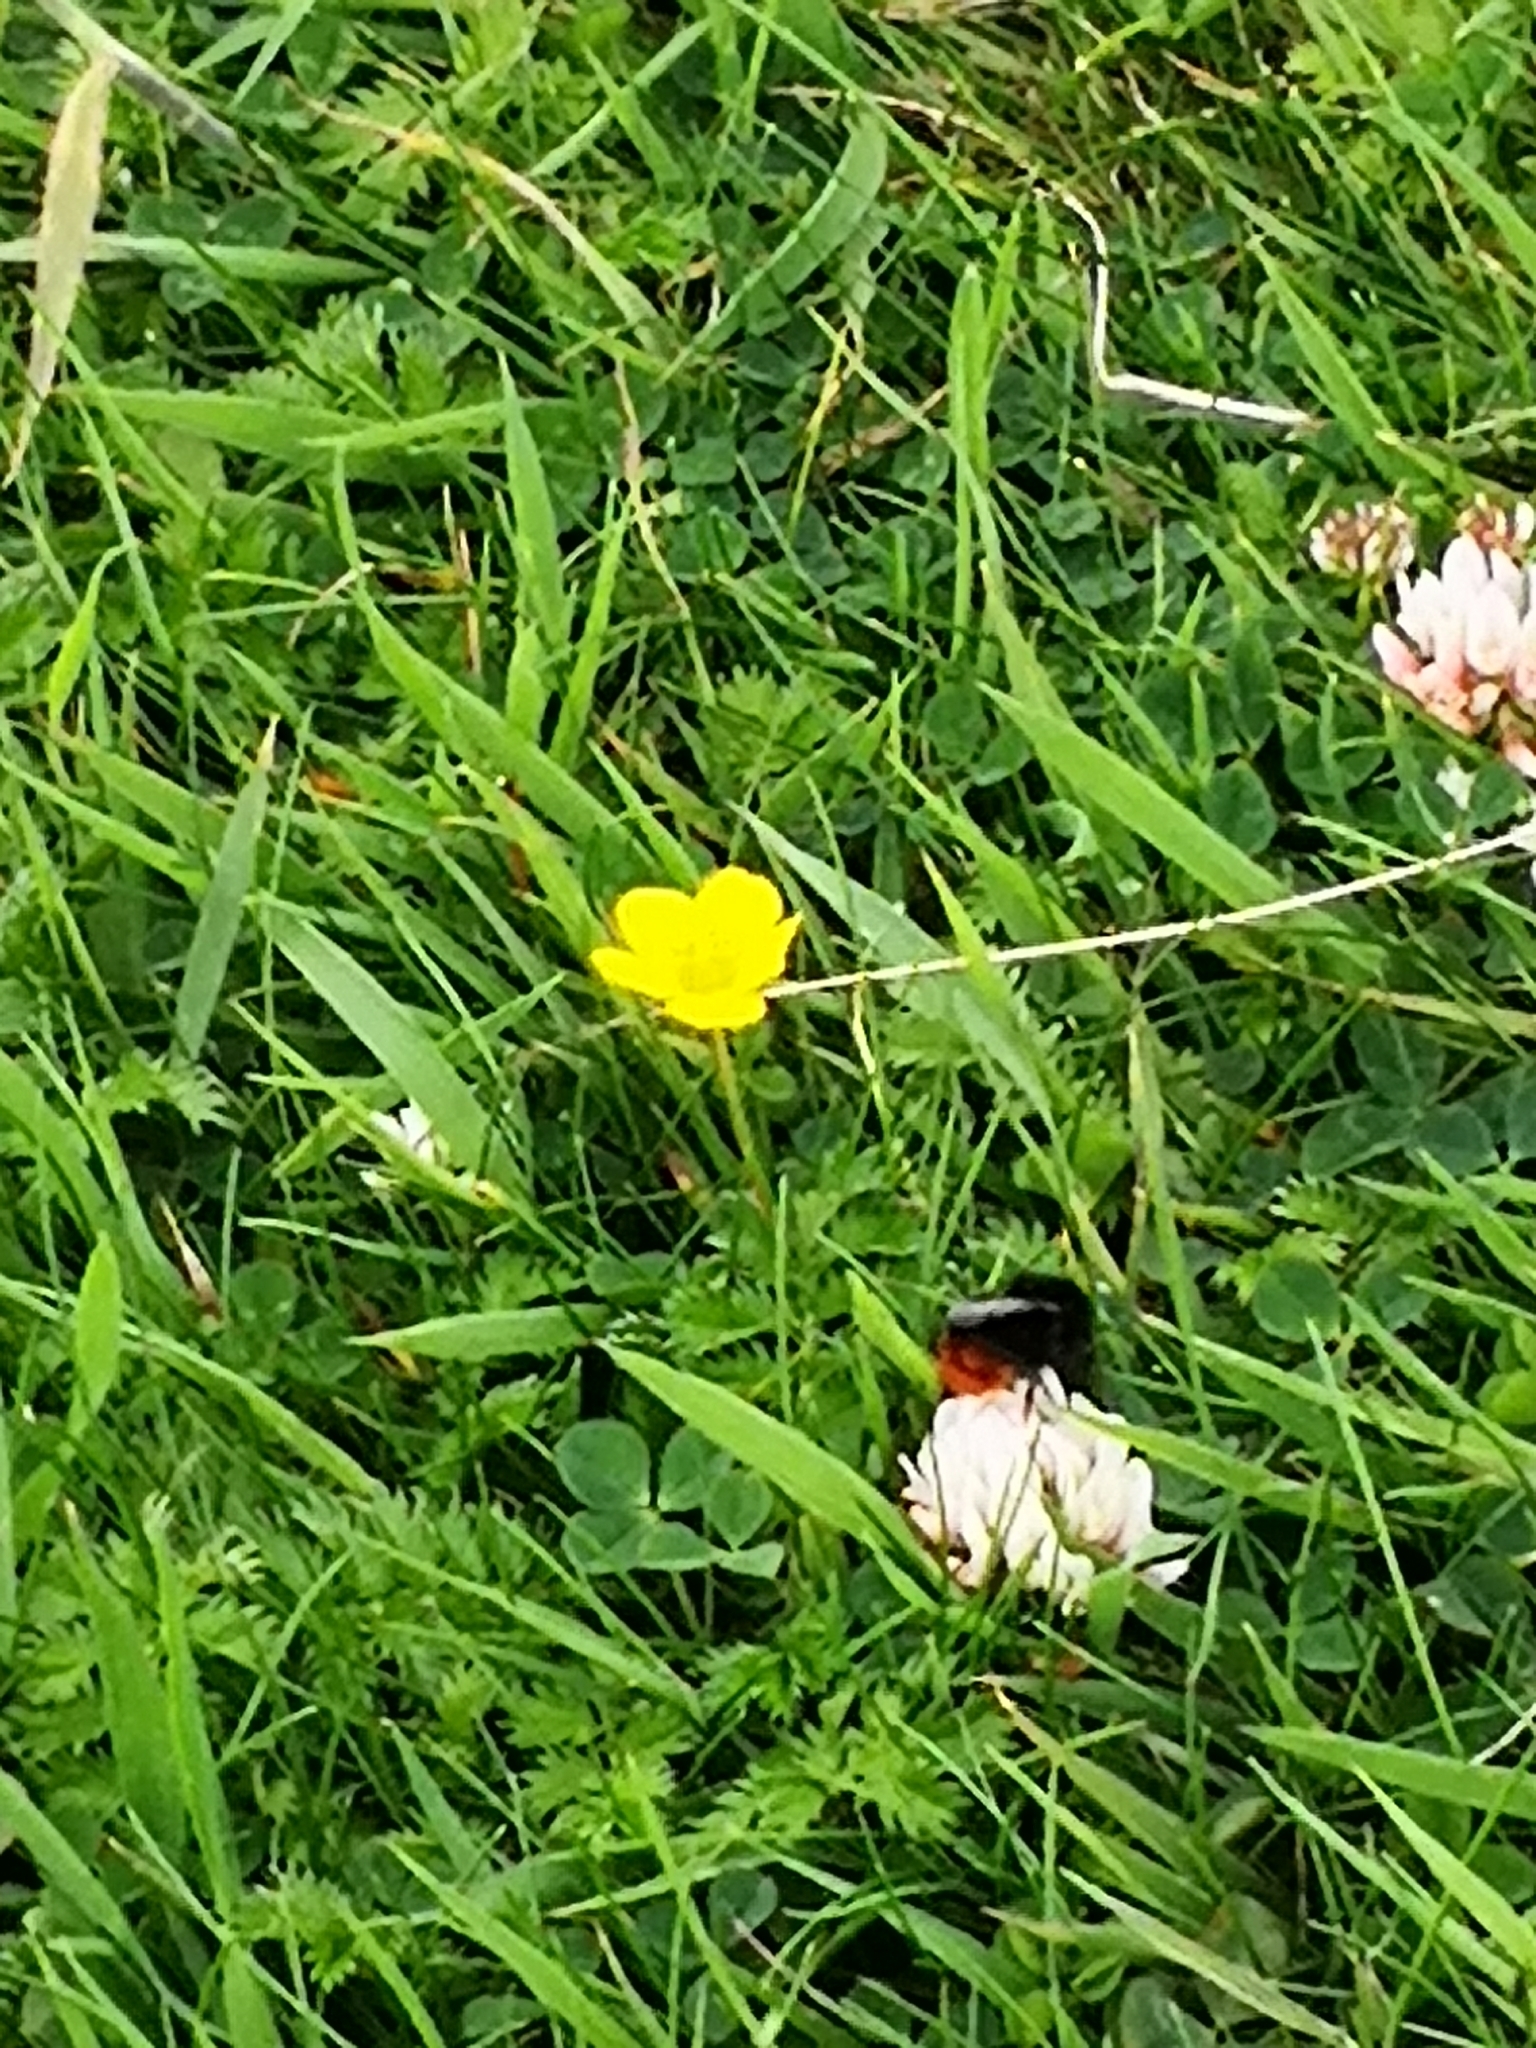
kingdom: Animalia
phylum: Arthropoda
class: Insecta
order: Hymenoptera
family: Apidae
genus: Bombus
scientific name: Bombus lapidarius
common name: Large red-tailed humble-bee
